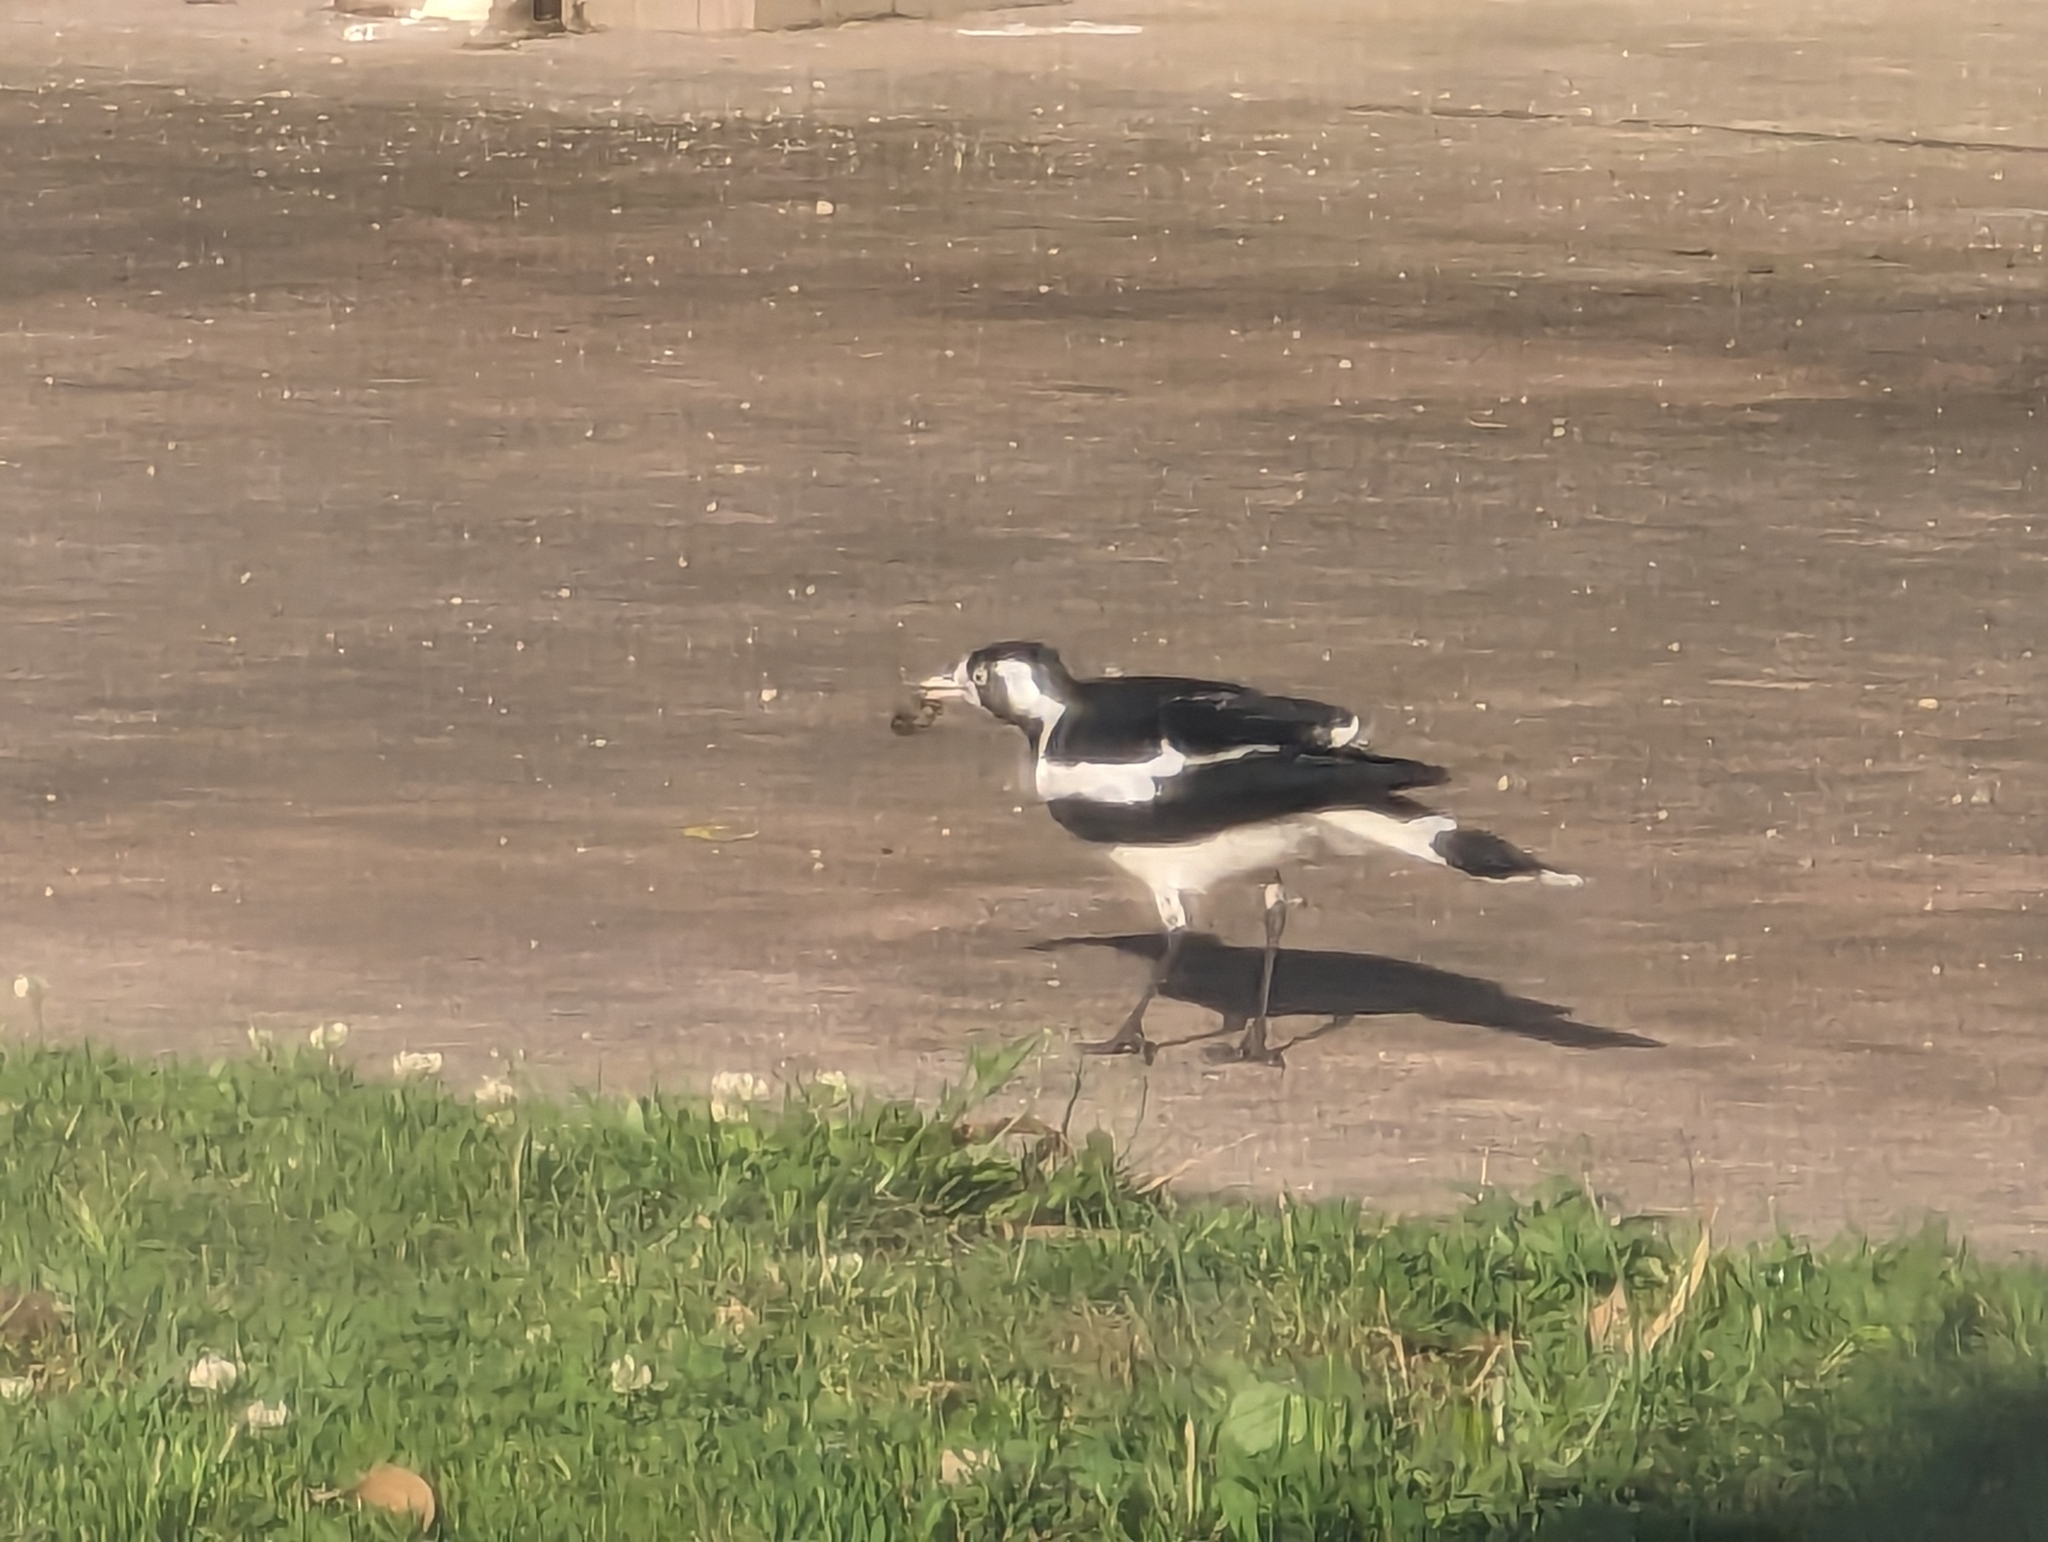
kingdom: Animalia
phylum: Chordata
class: Aves
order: Passeriformes
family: Monarchidae
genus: Grallina
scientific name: Grallina cyanoleuca
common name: Magpie-lark
